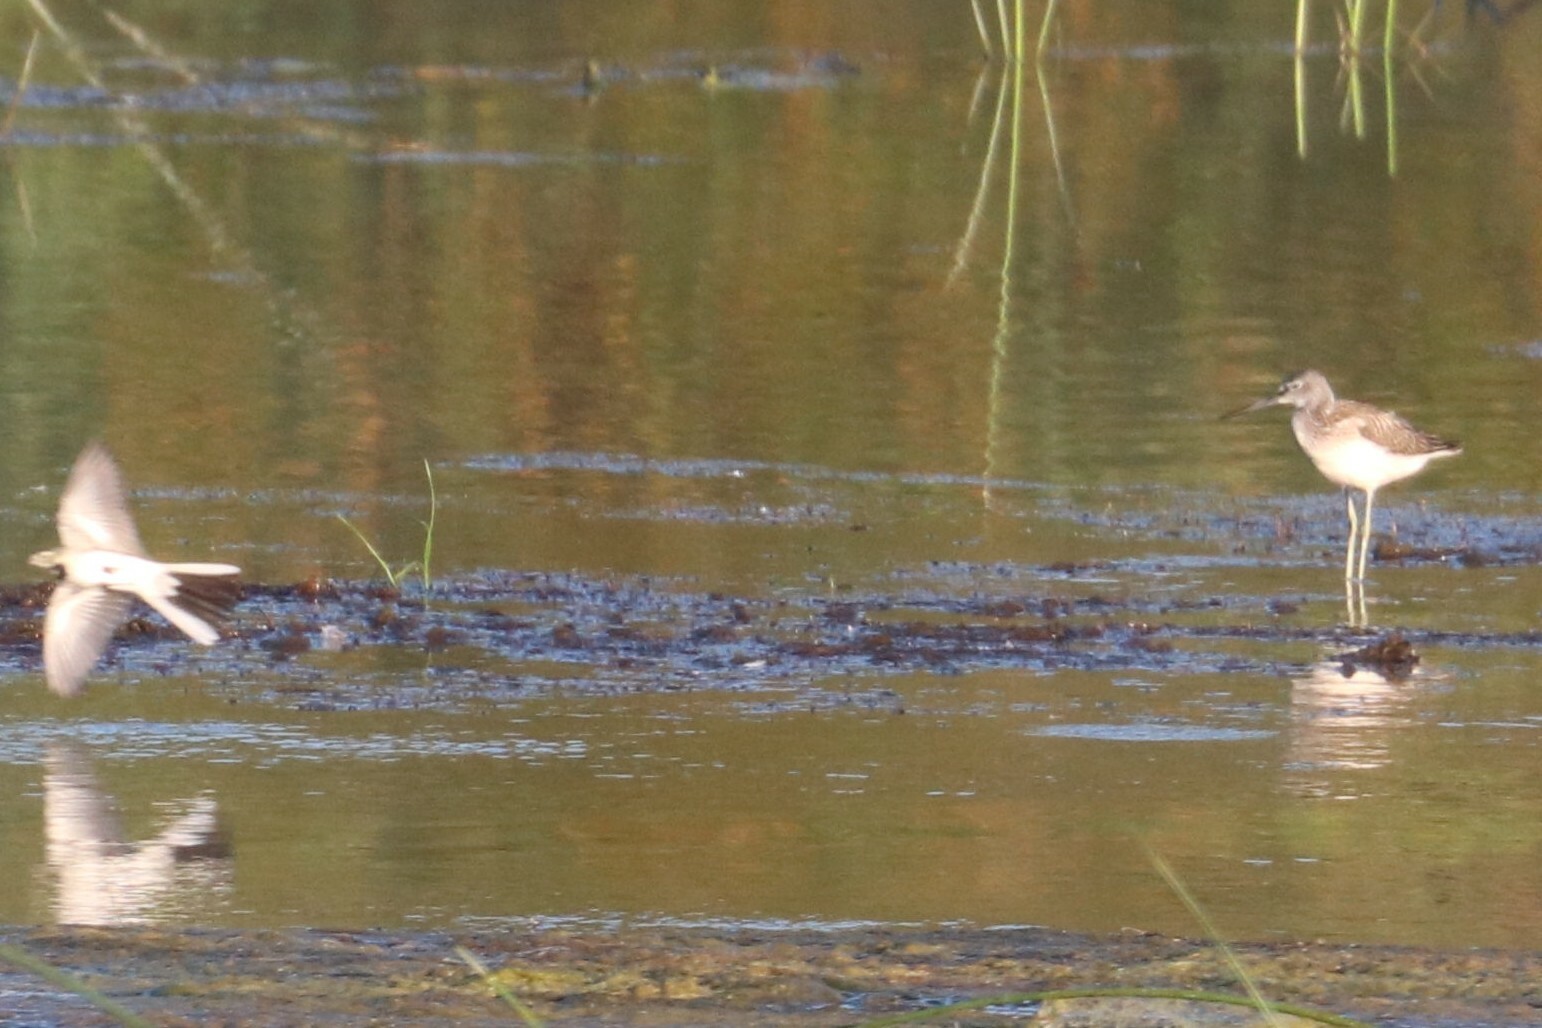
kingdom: Animalia
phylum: Chordata
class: Aves
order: Charadriiformes
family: Scolopacidae
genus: Tringa
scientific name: Tringa nebularia
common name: Common greenshank
